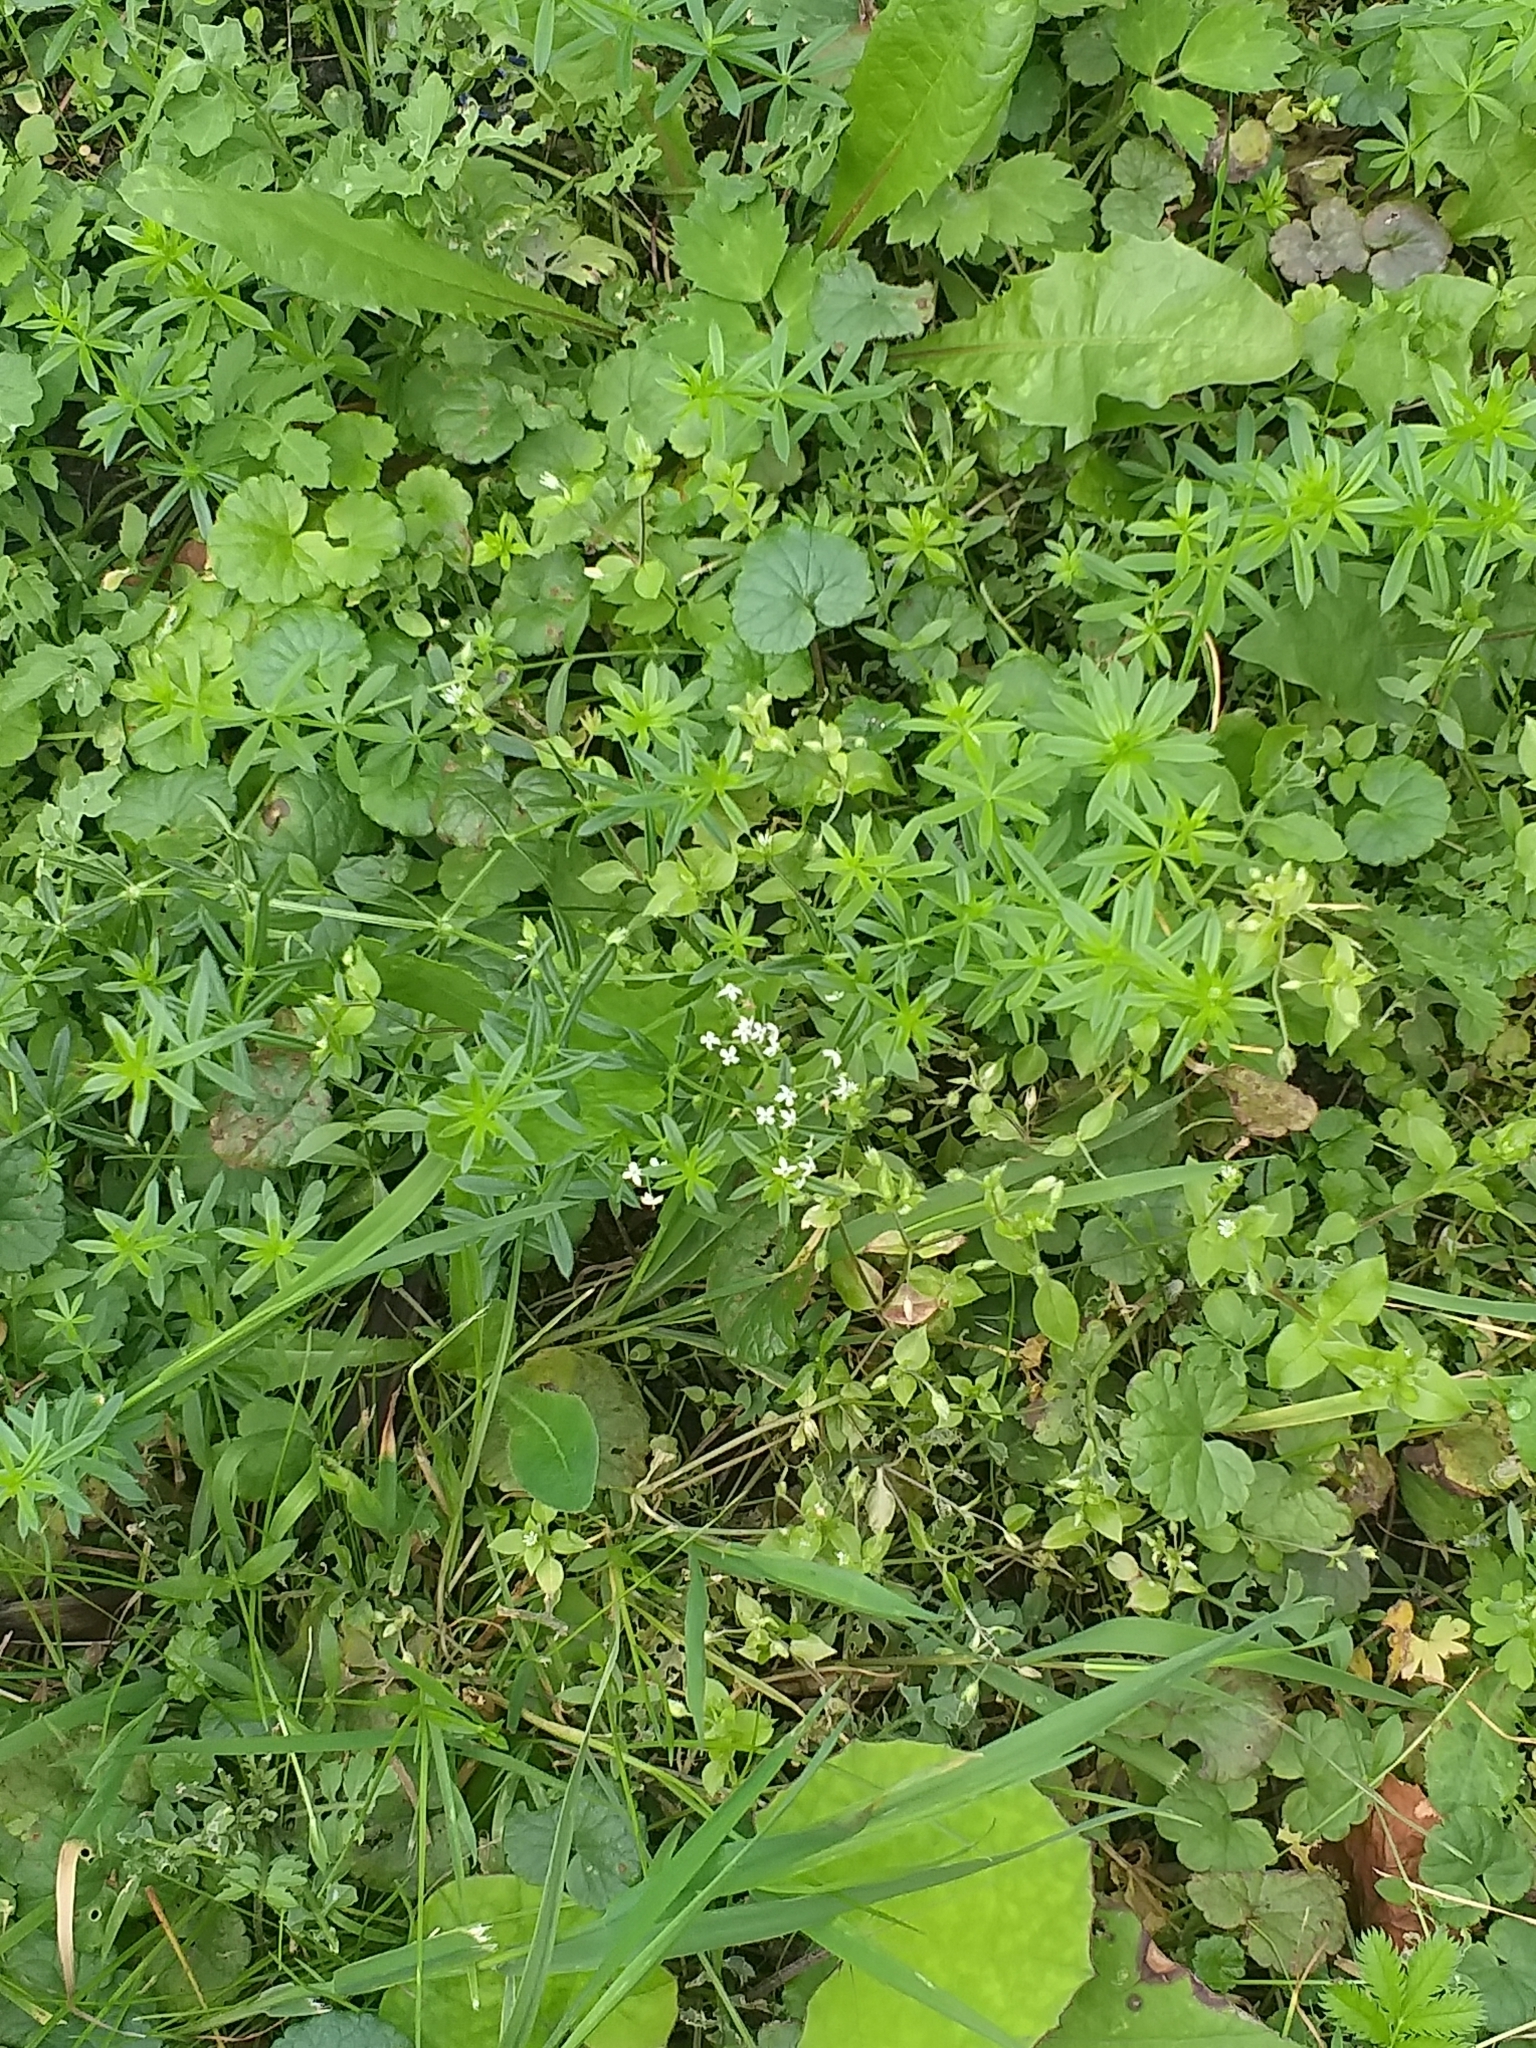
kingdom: Plantae
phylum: Tracheophyta
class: Magnoliopsida
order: Gentianales
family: Rubiaceae
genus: Galium
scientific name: Galium mollugo
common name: Hedge bedstraw
